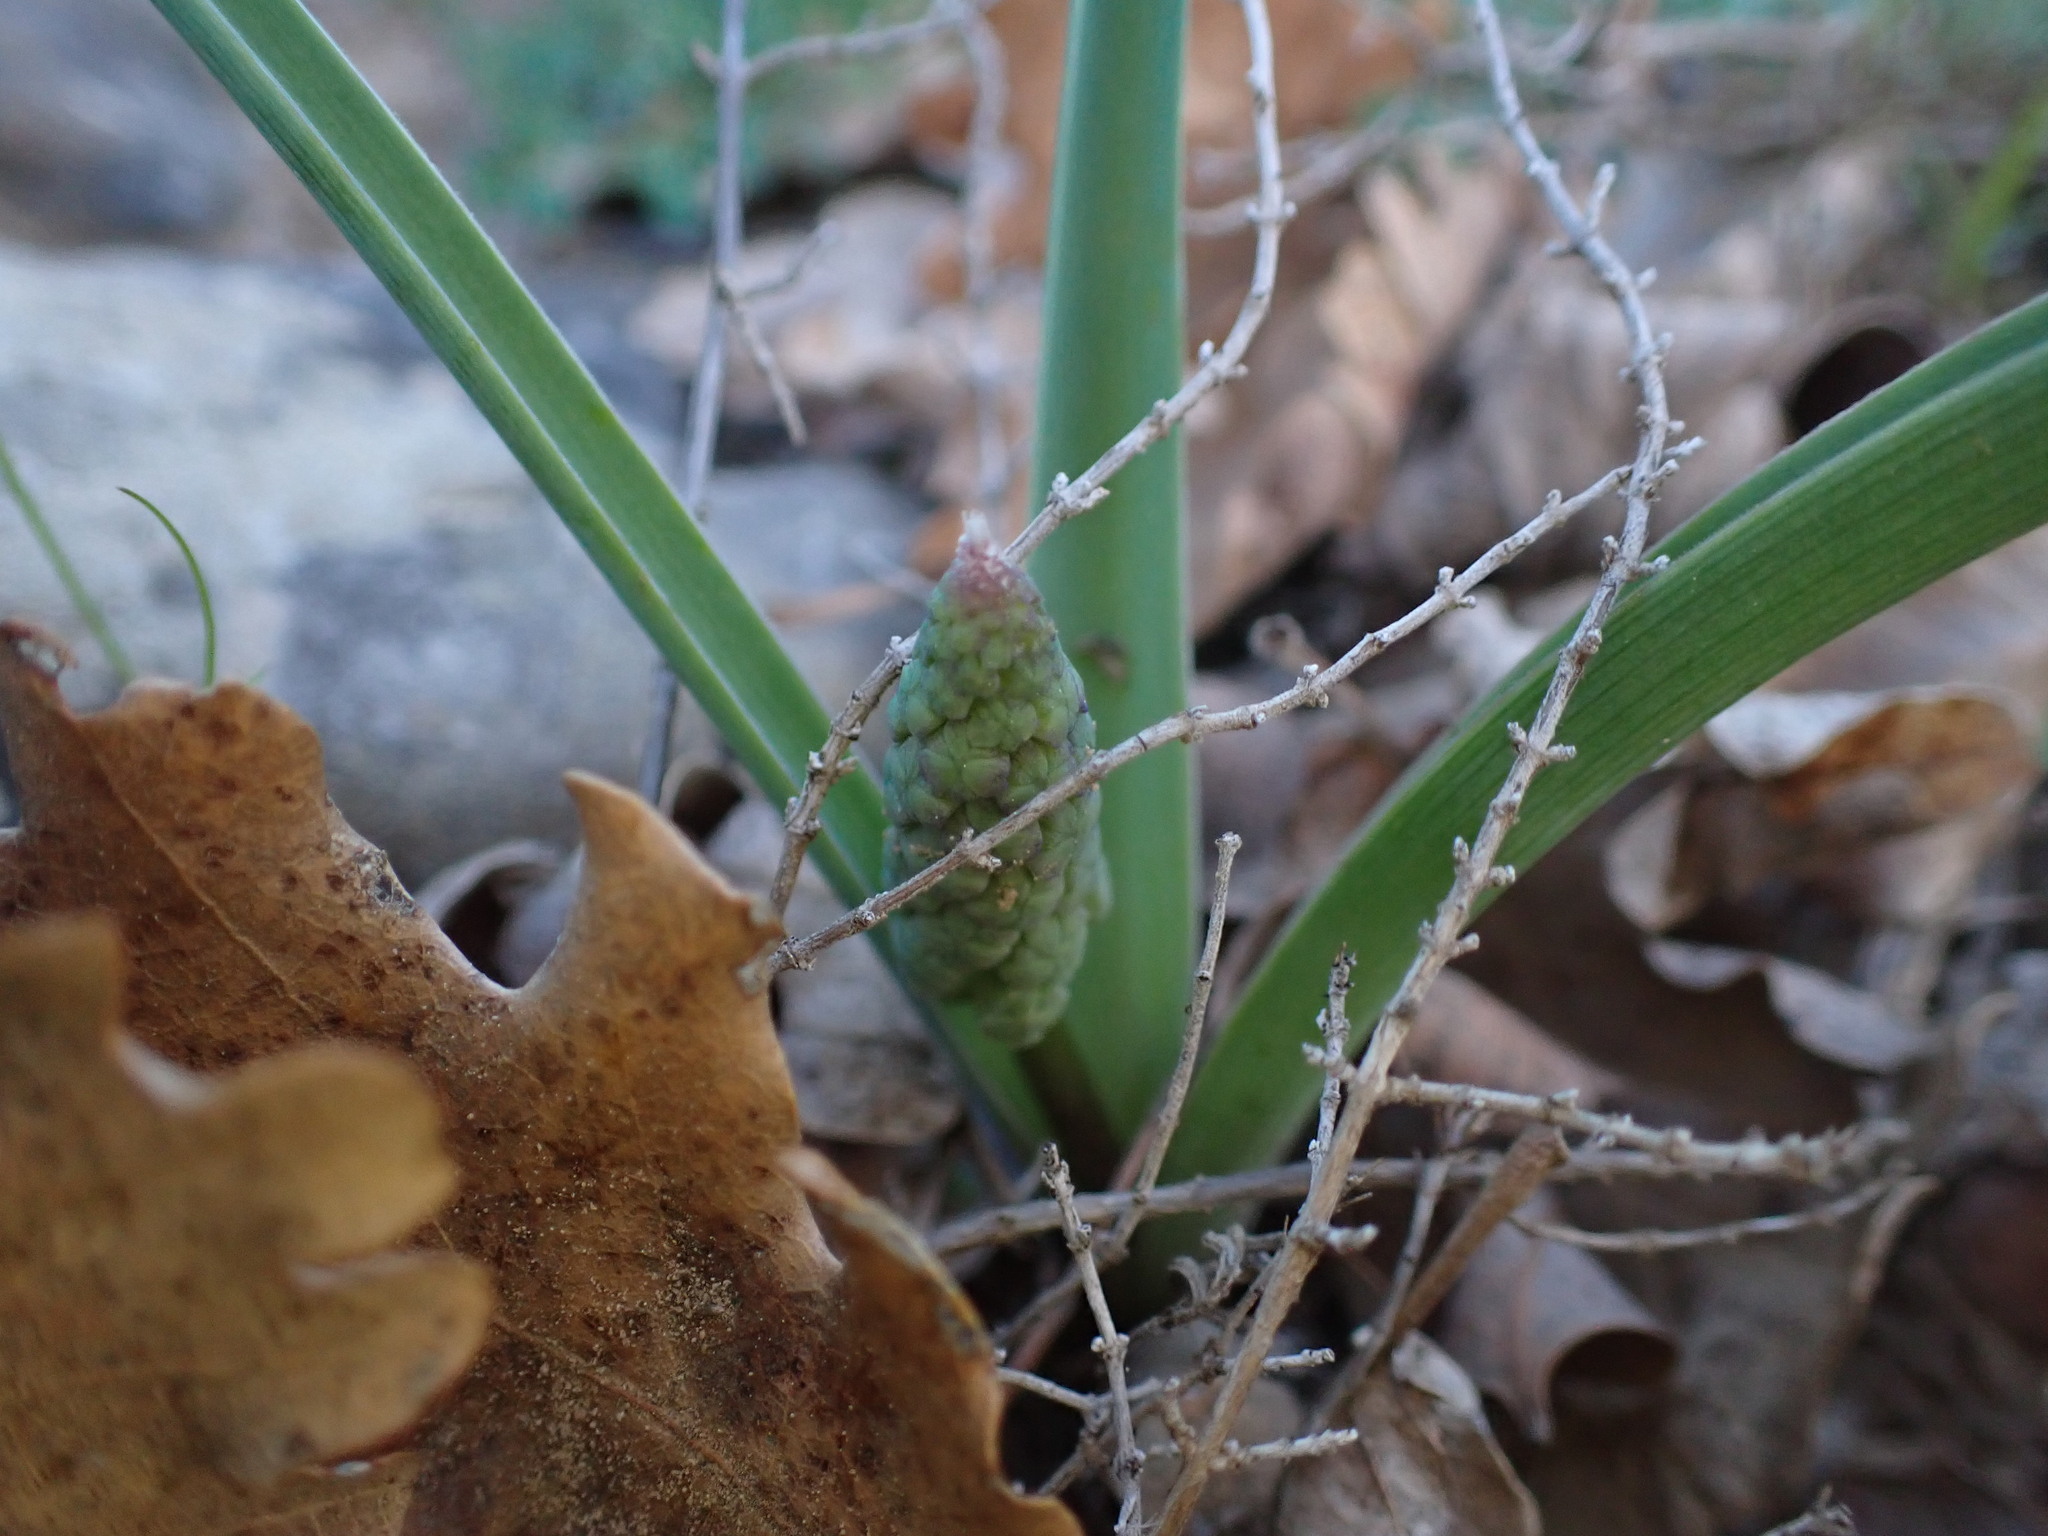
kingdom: Plantae
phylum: Tracheophyta
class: Liliopsida
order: Asparagales
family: Asparagaceae
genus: Muscari
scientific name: Muscari comosum
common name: Tassel hyacinth
